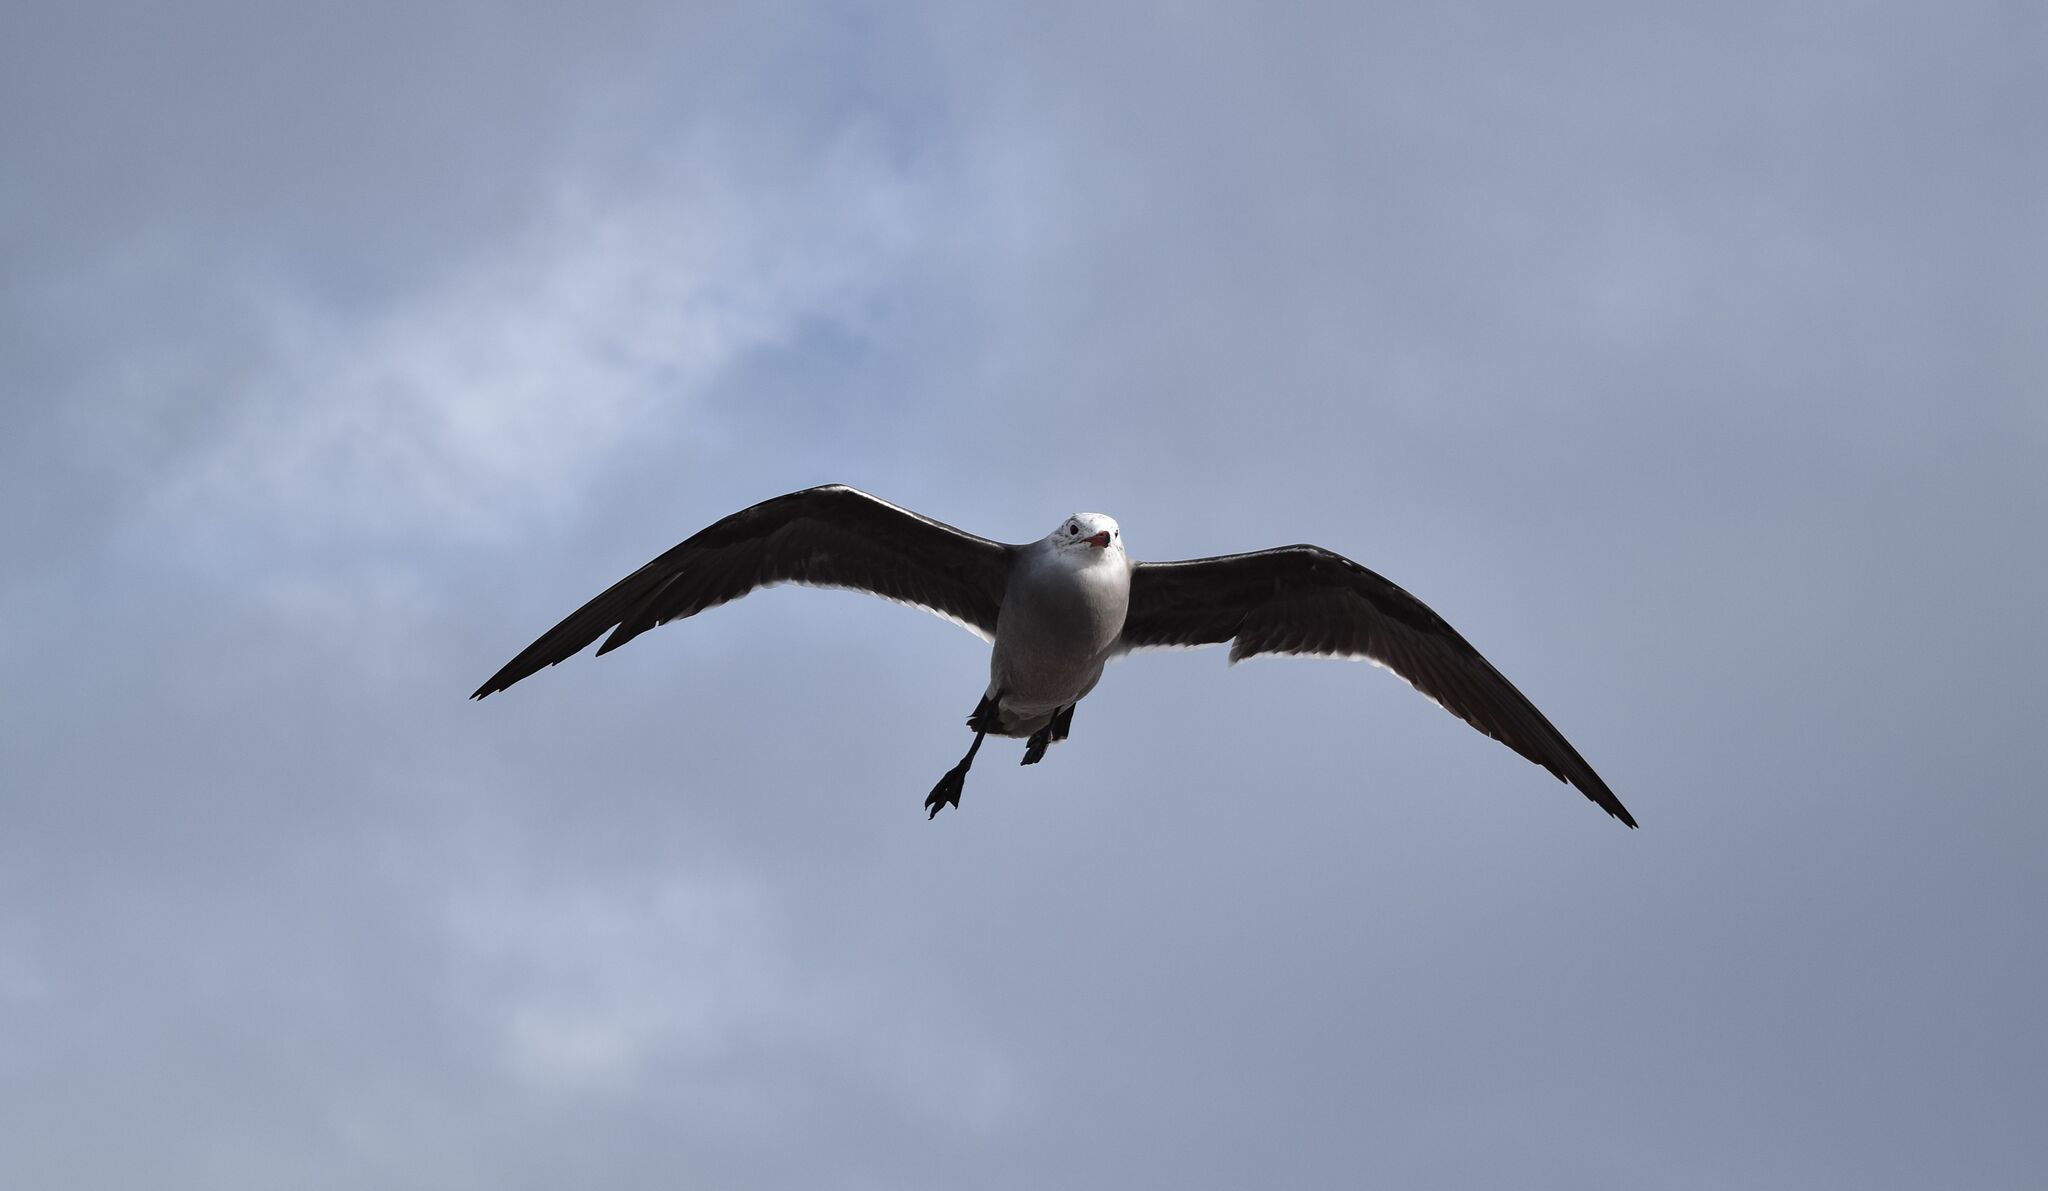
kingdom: Animalia
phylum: Chordata
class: Aves
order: Charadriiformes
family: Laridae
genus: Larus
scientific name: Larus heermanni
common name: Heermann's gull
